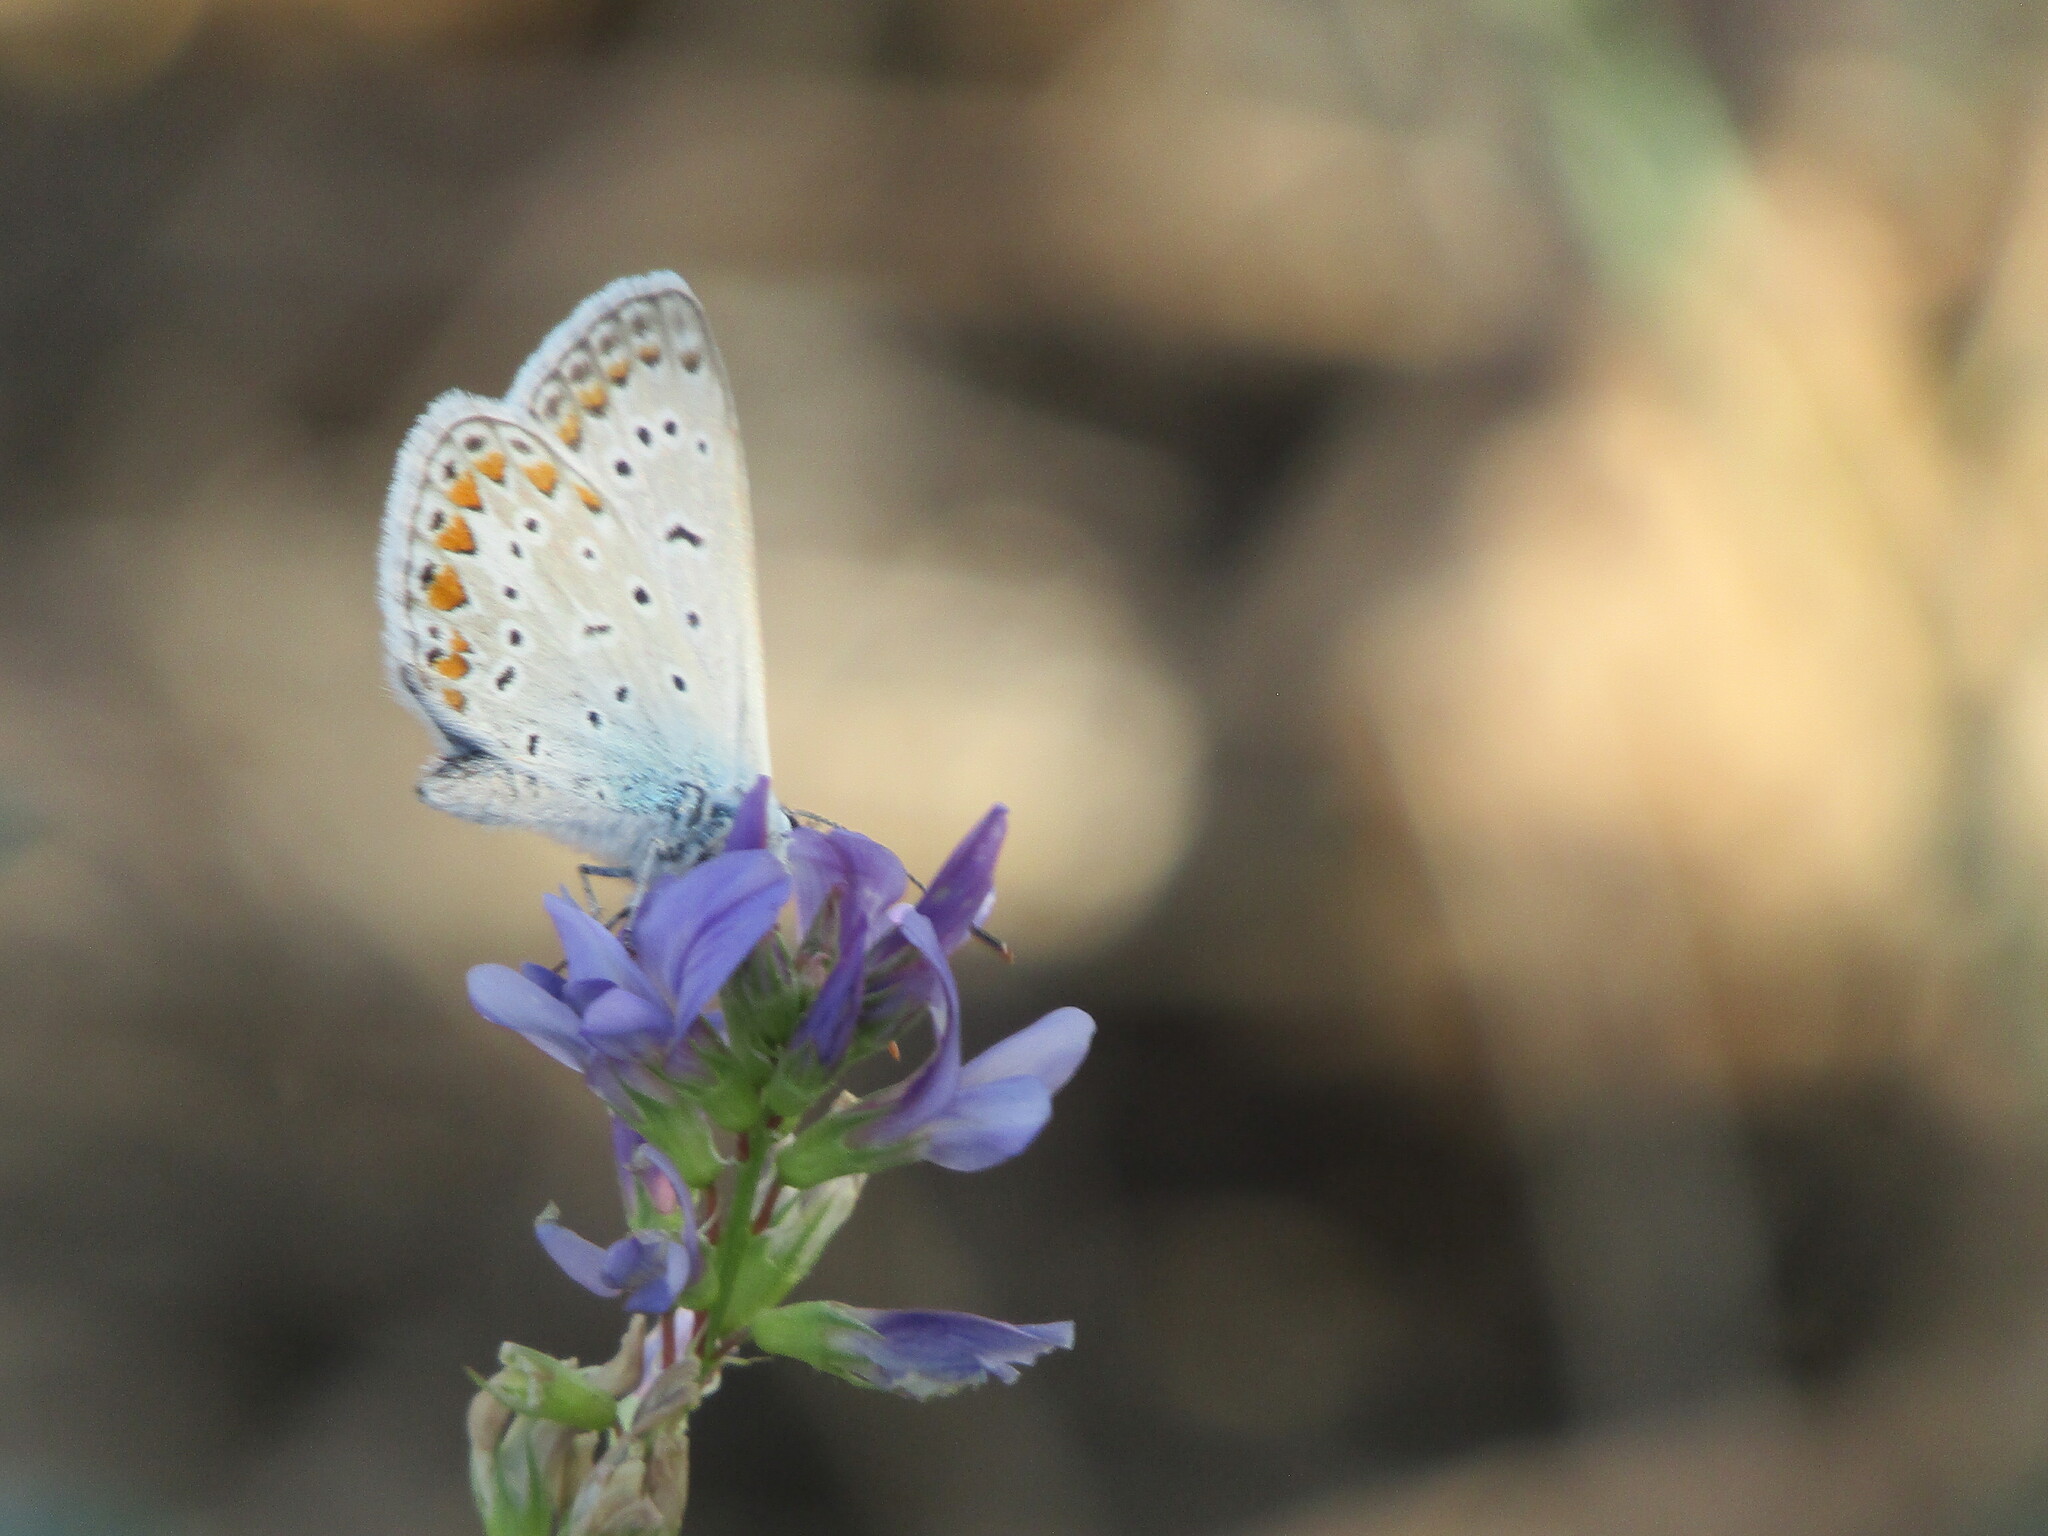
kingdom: Animalia
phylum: Arthropoda
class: Insecta
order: Lepidoptera
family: Lycaenidae
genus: Polyommatus
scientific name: Polyommatus icarus
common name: Common blue
